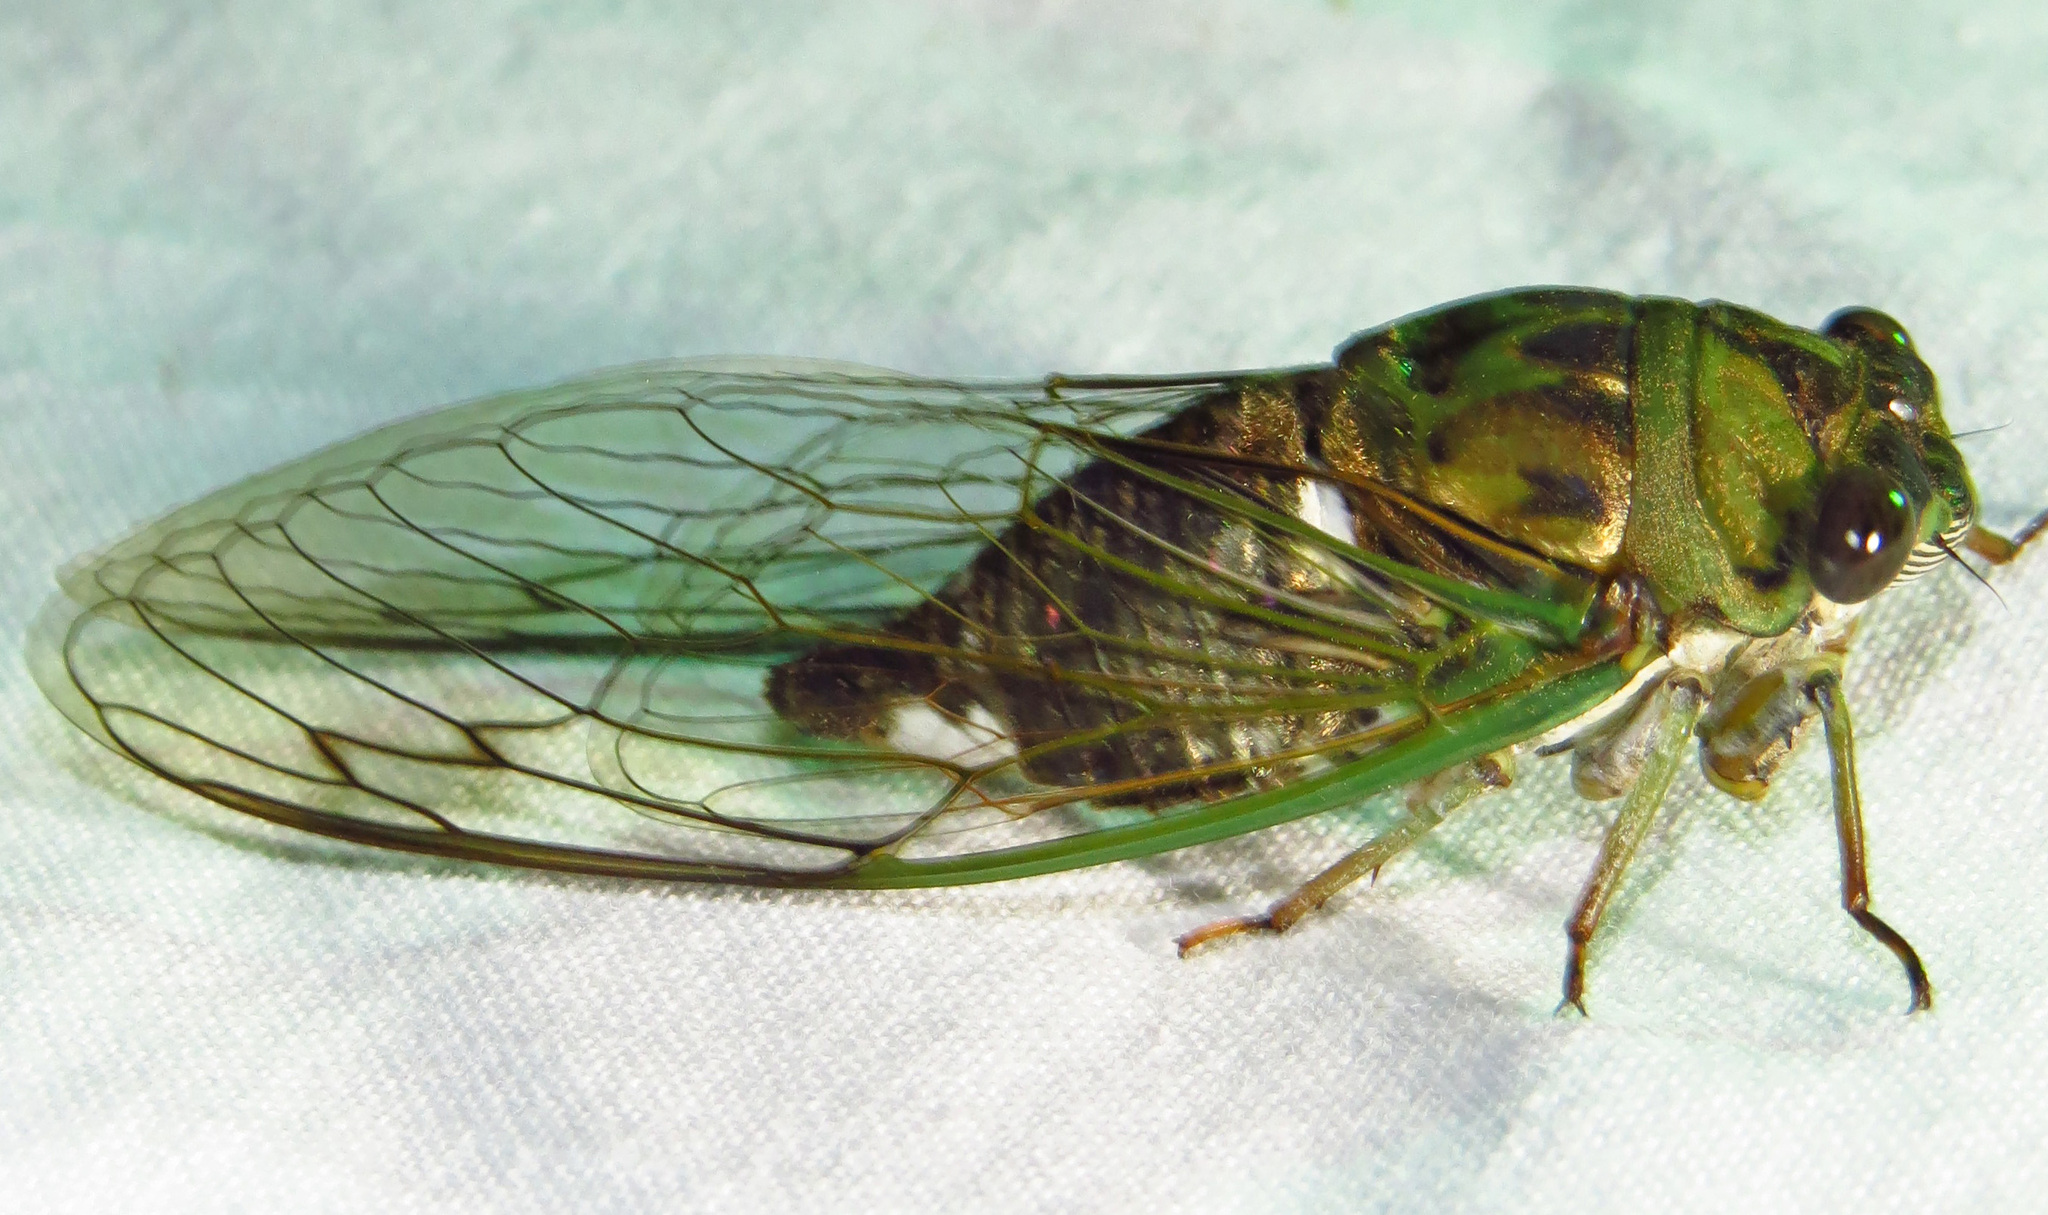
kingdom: Animalia
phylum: Arthropoda
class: Insecta
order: Hemiptera
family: Cicadidae
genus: Neotibicen
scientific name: Neotibicen pruinosus
